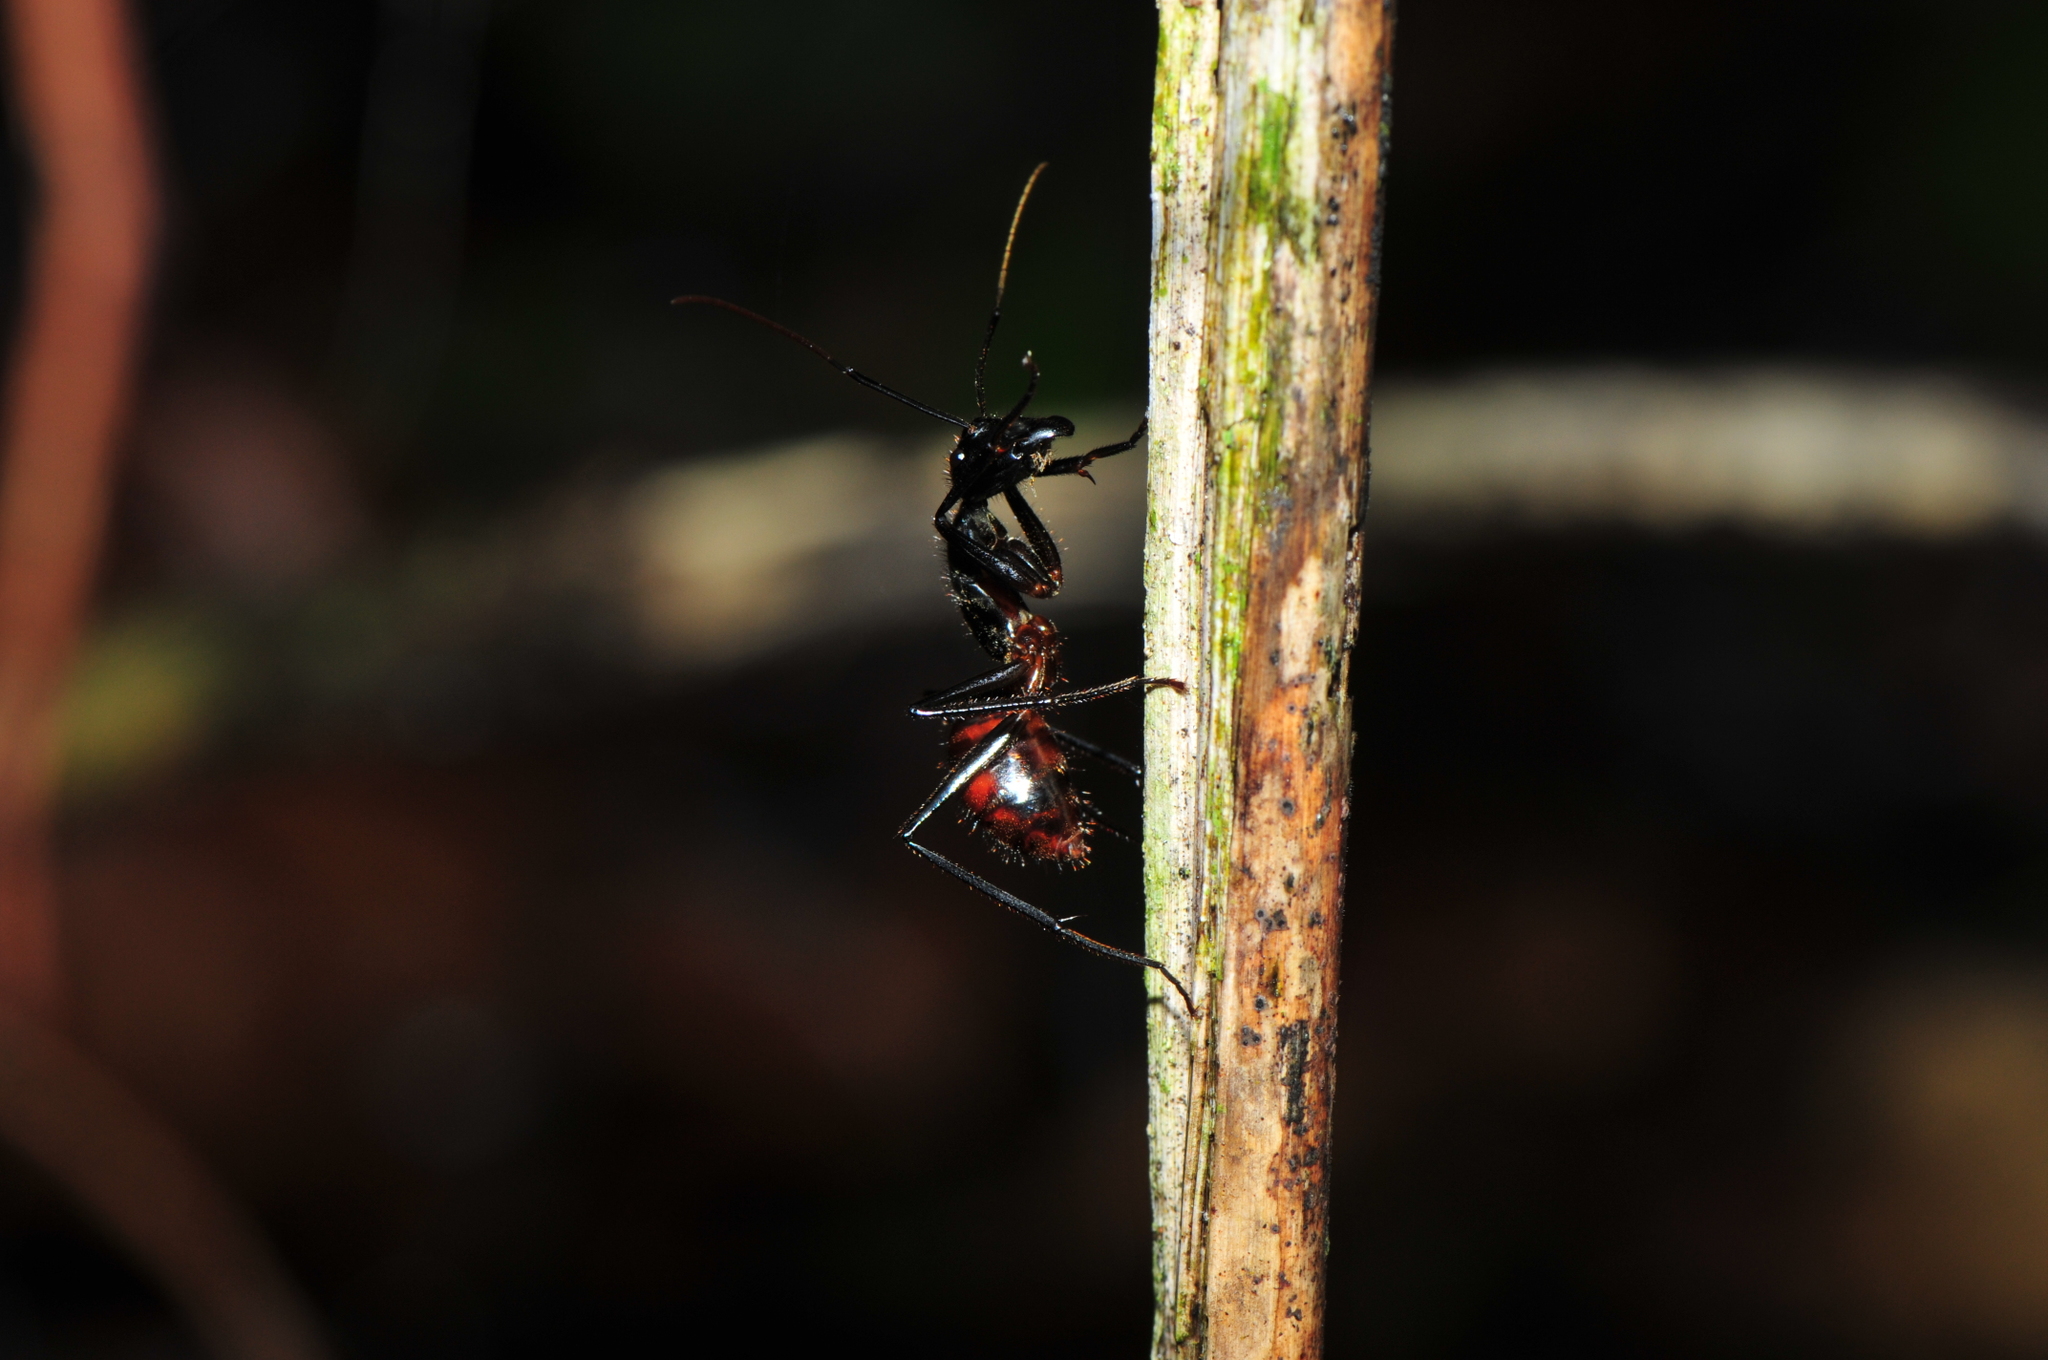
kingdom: Animalia
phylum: Arthropoda
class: Insecta
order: Hymenoptera
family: Formicidae
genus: Dinomyrmex
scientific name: Dinomyrmex
